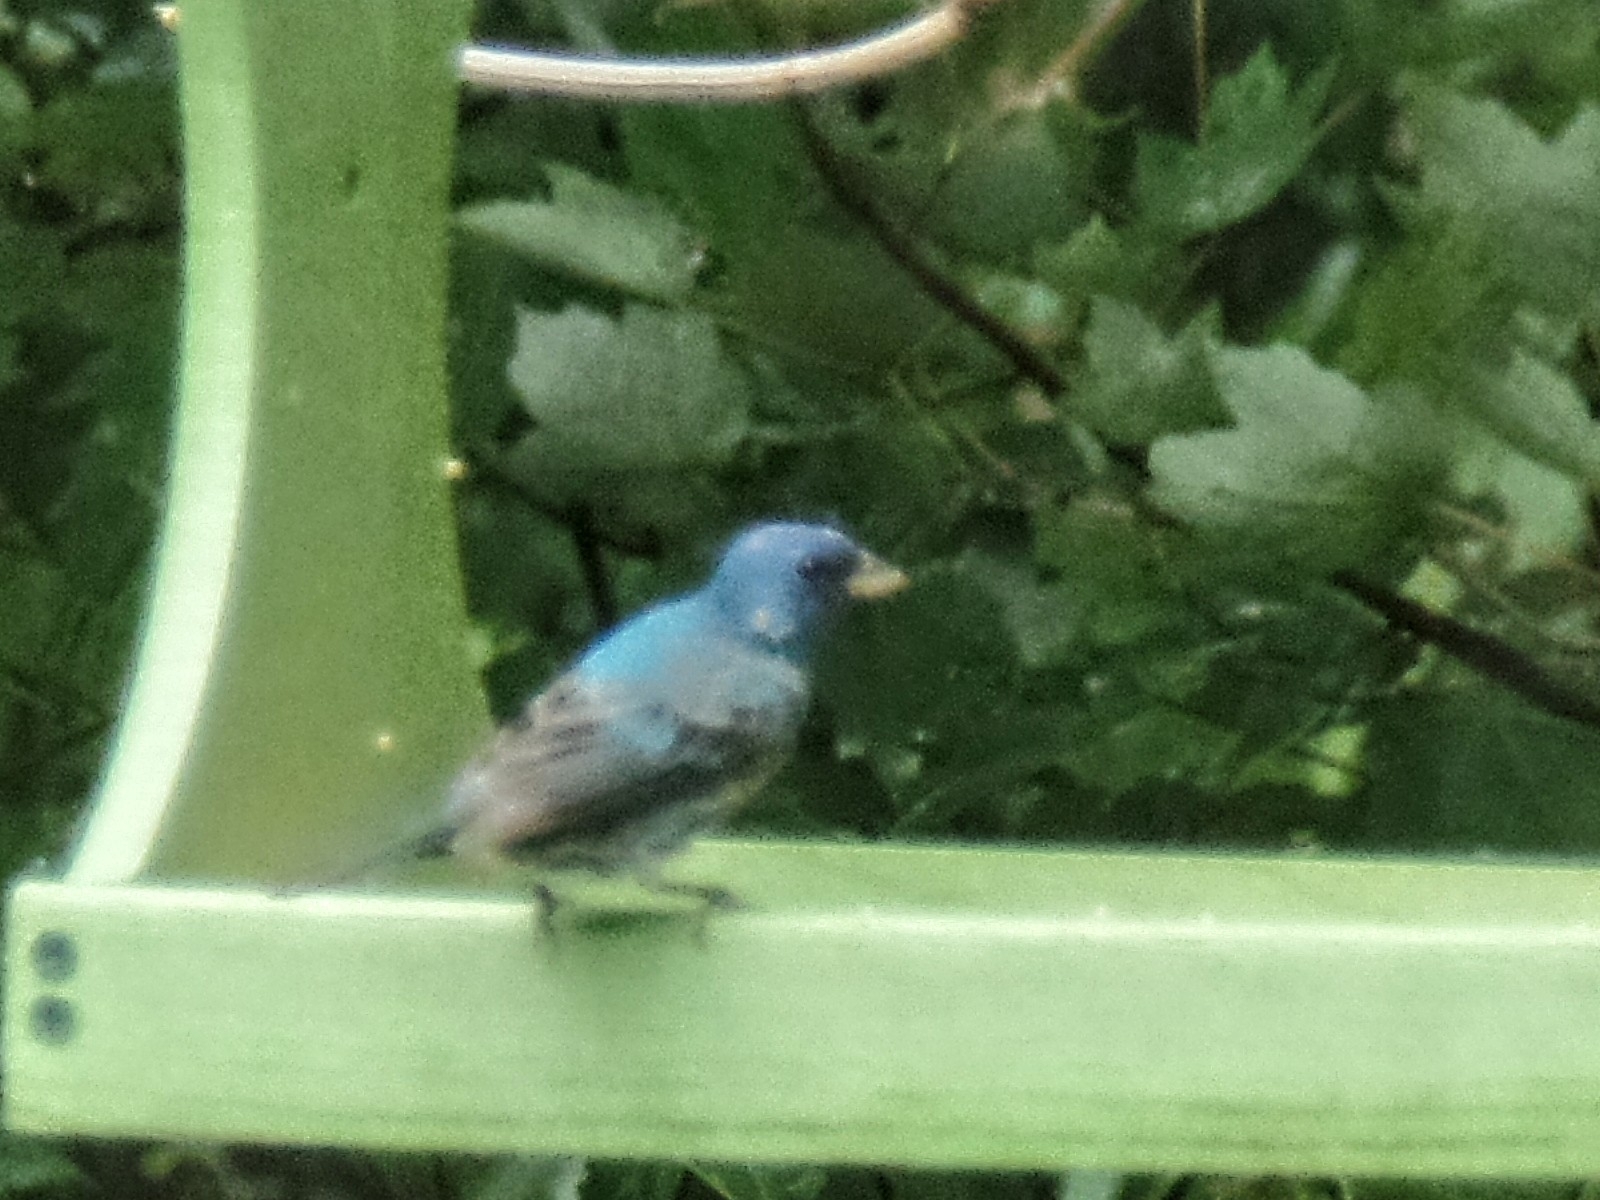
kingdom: Animalia
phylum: Chordata
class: Aves
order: Passeriformes
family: Cardinalidae
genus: Passerina
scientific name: Passerina cyanea
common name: Indigo bunting
